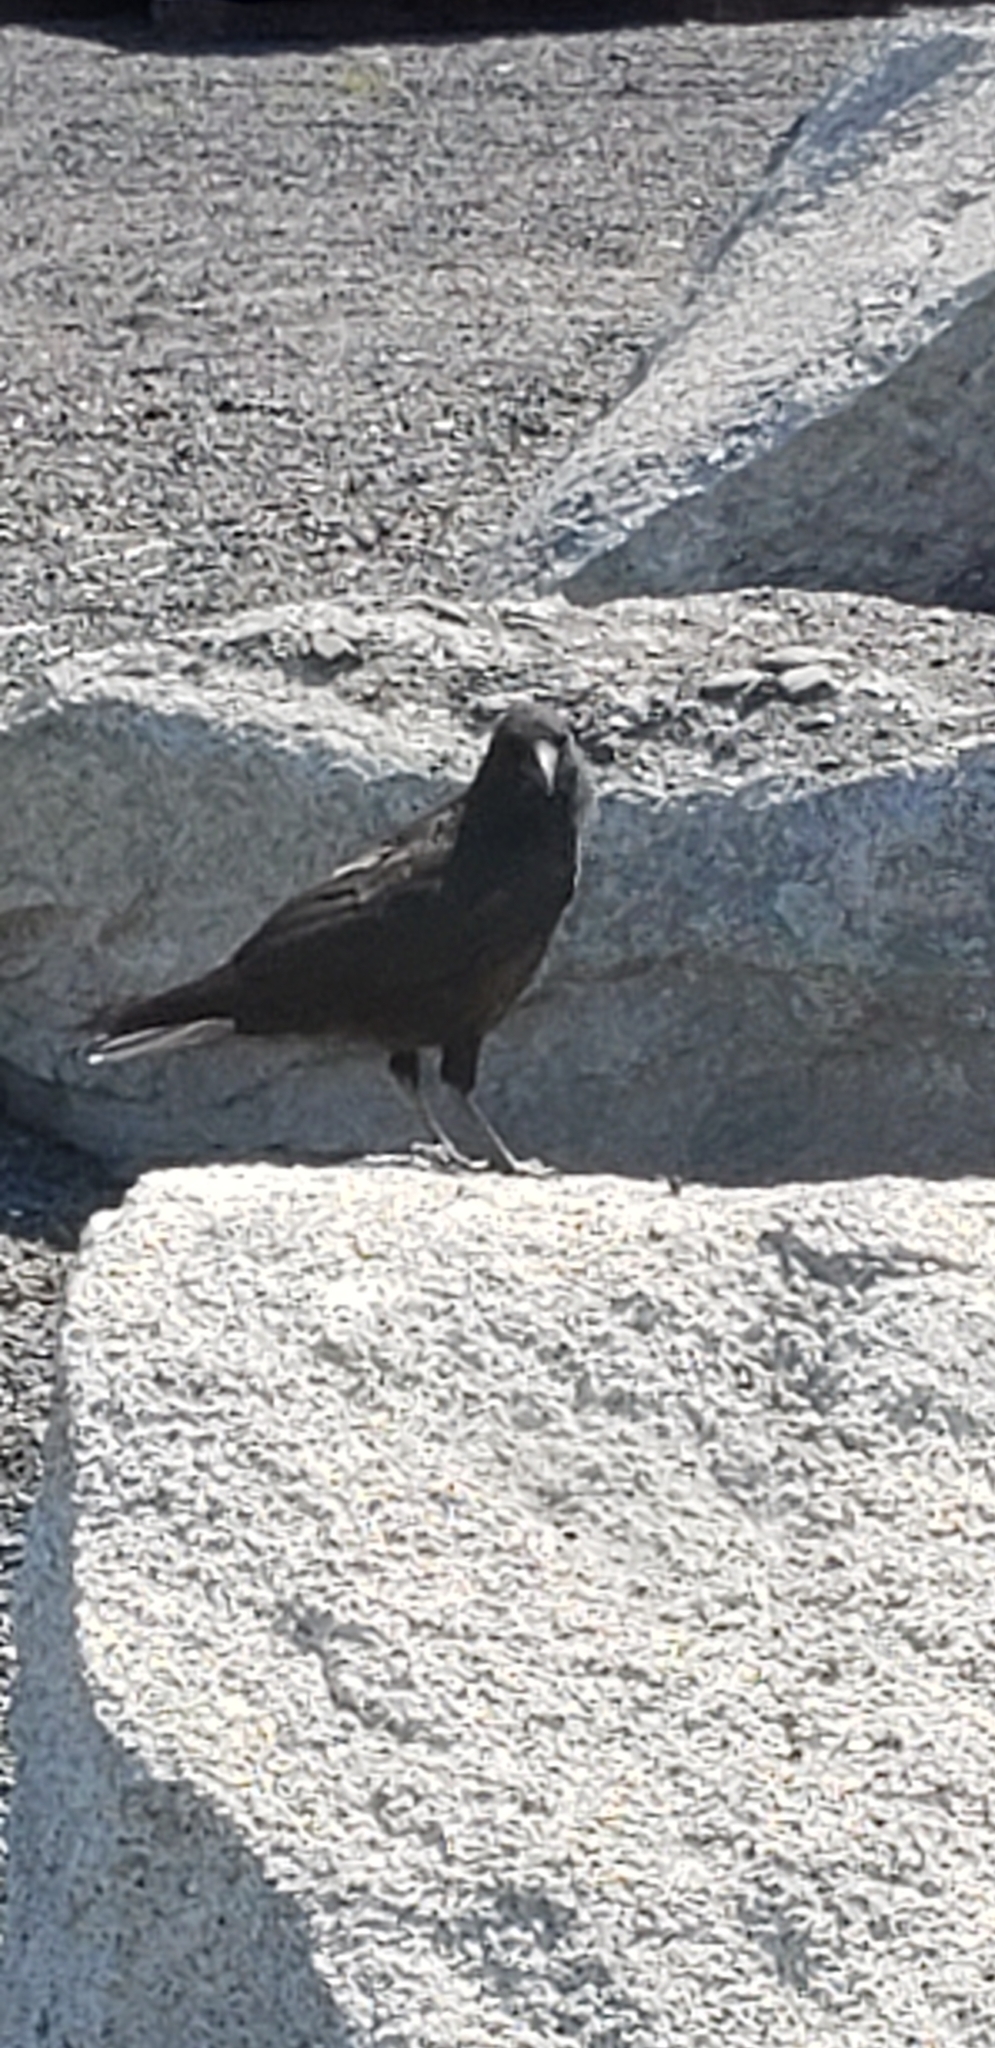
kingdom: Animalia
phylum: Chordata
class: Aves
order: Passeriformes
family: Corvidae
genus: Corvus
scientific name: Corvus brachyrhynchos
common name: American crow
